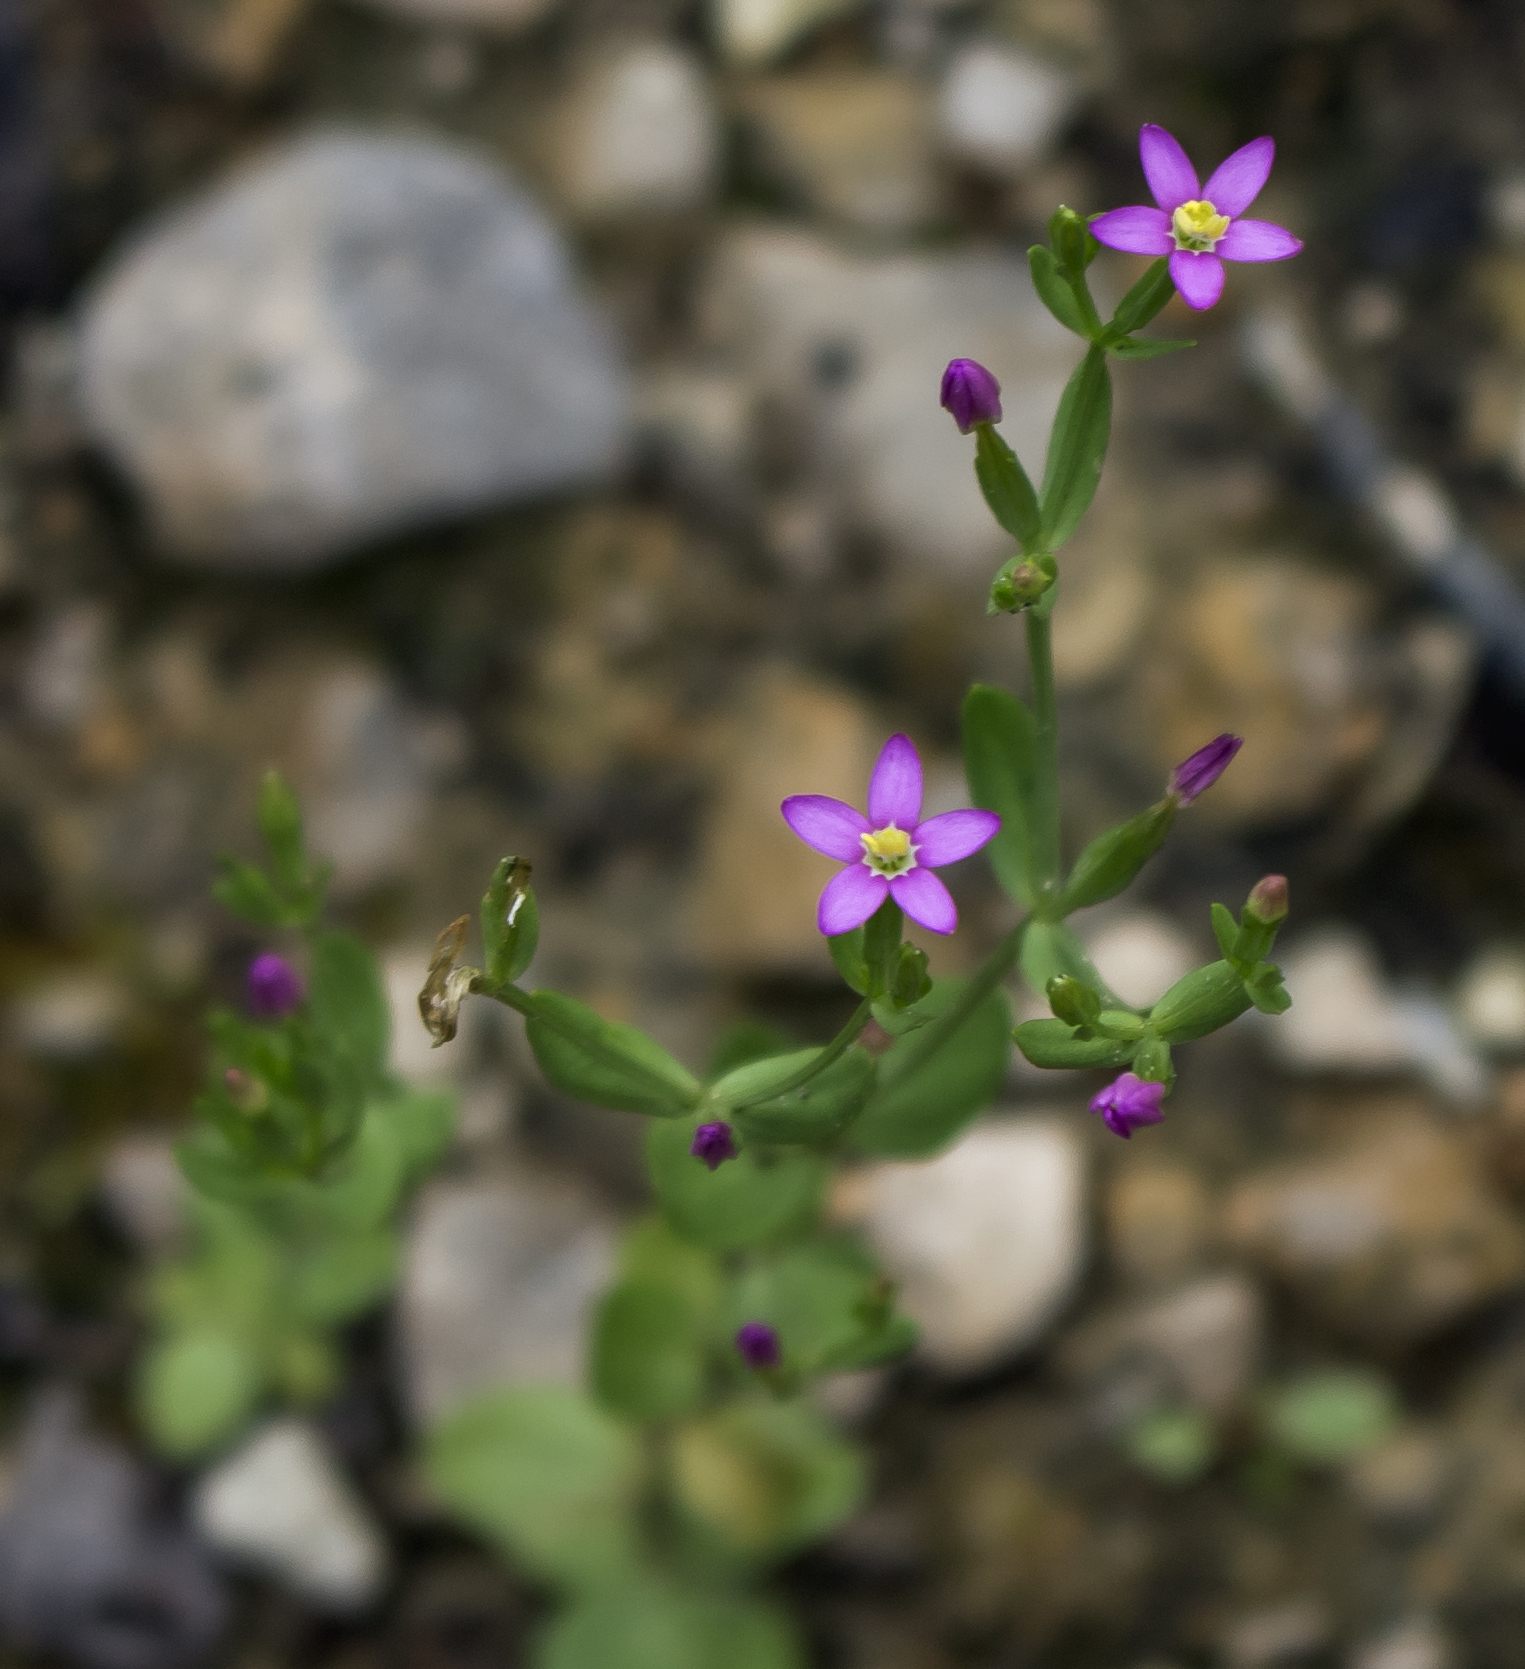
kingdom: Plantae
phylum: Tracheophyta
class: Magnoliopsida
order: Gentianales
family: Gentianaceae
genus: Centaurium
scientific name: Centaurium pulchellum
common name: Lesser centaury
